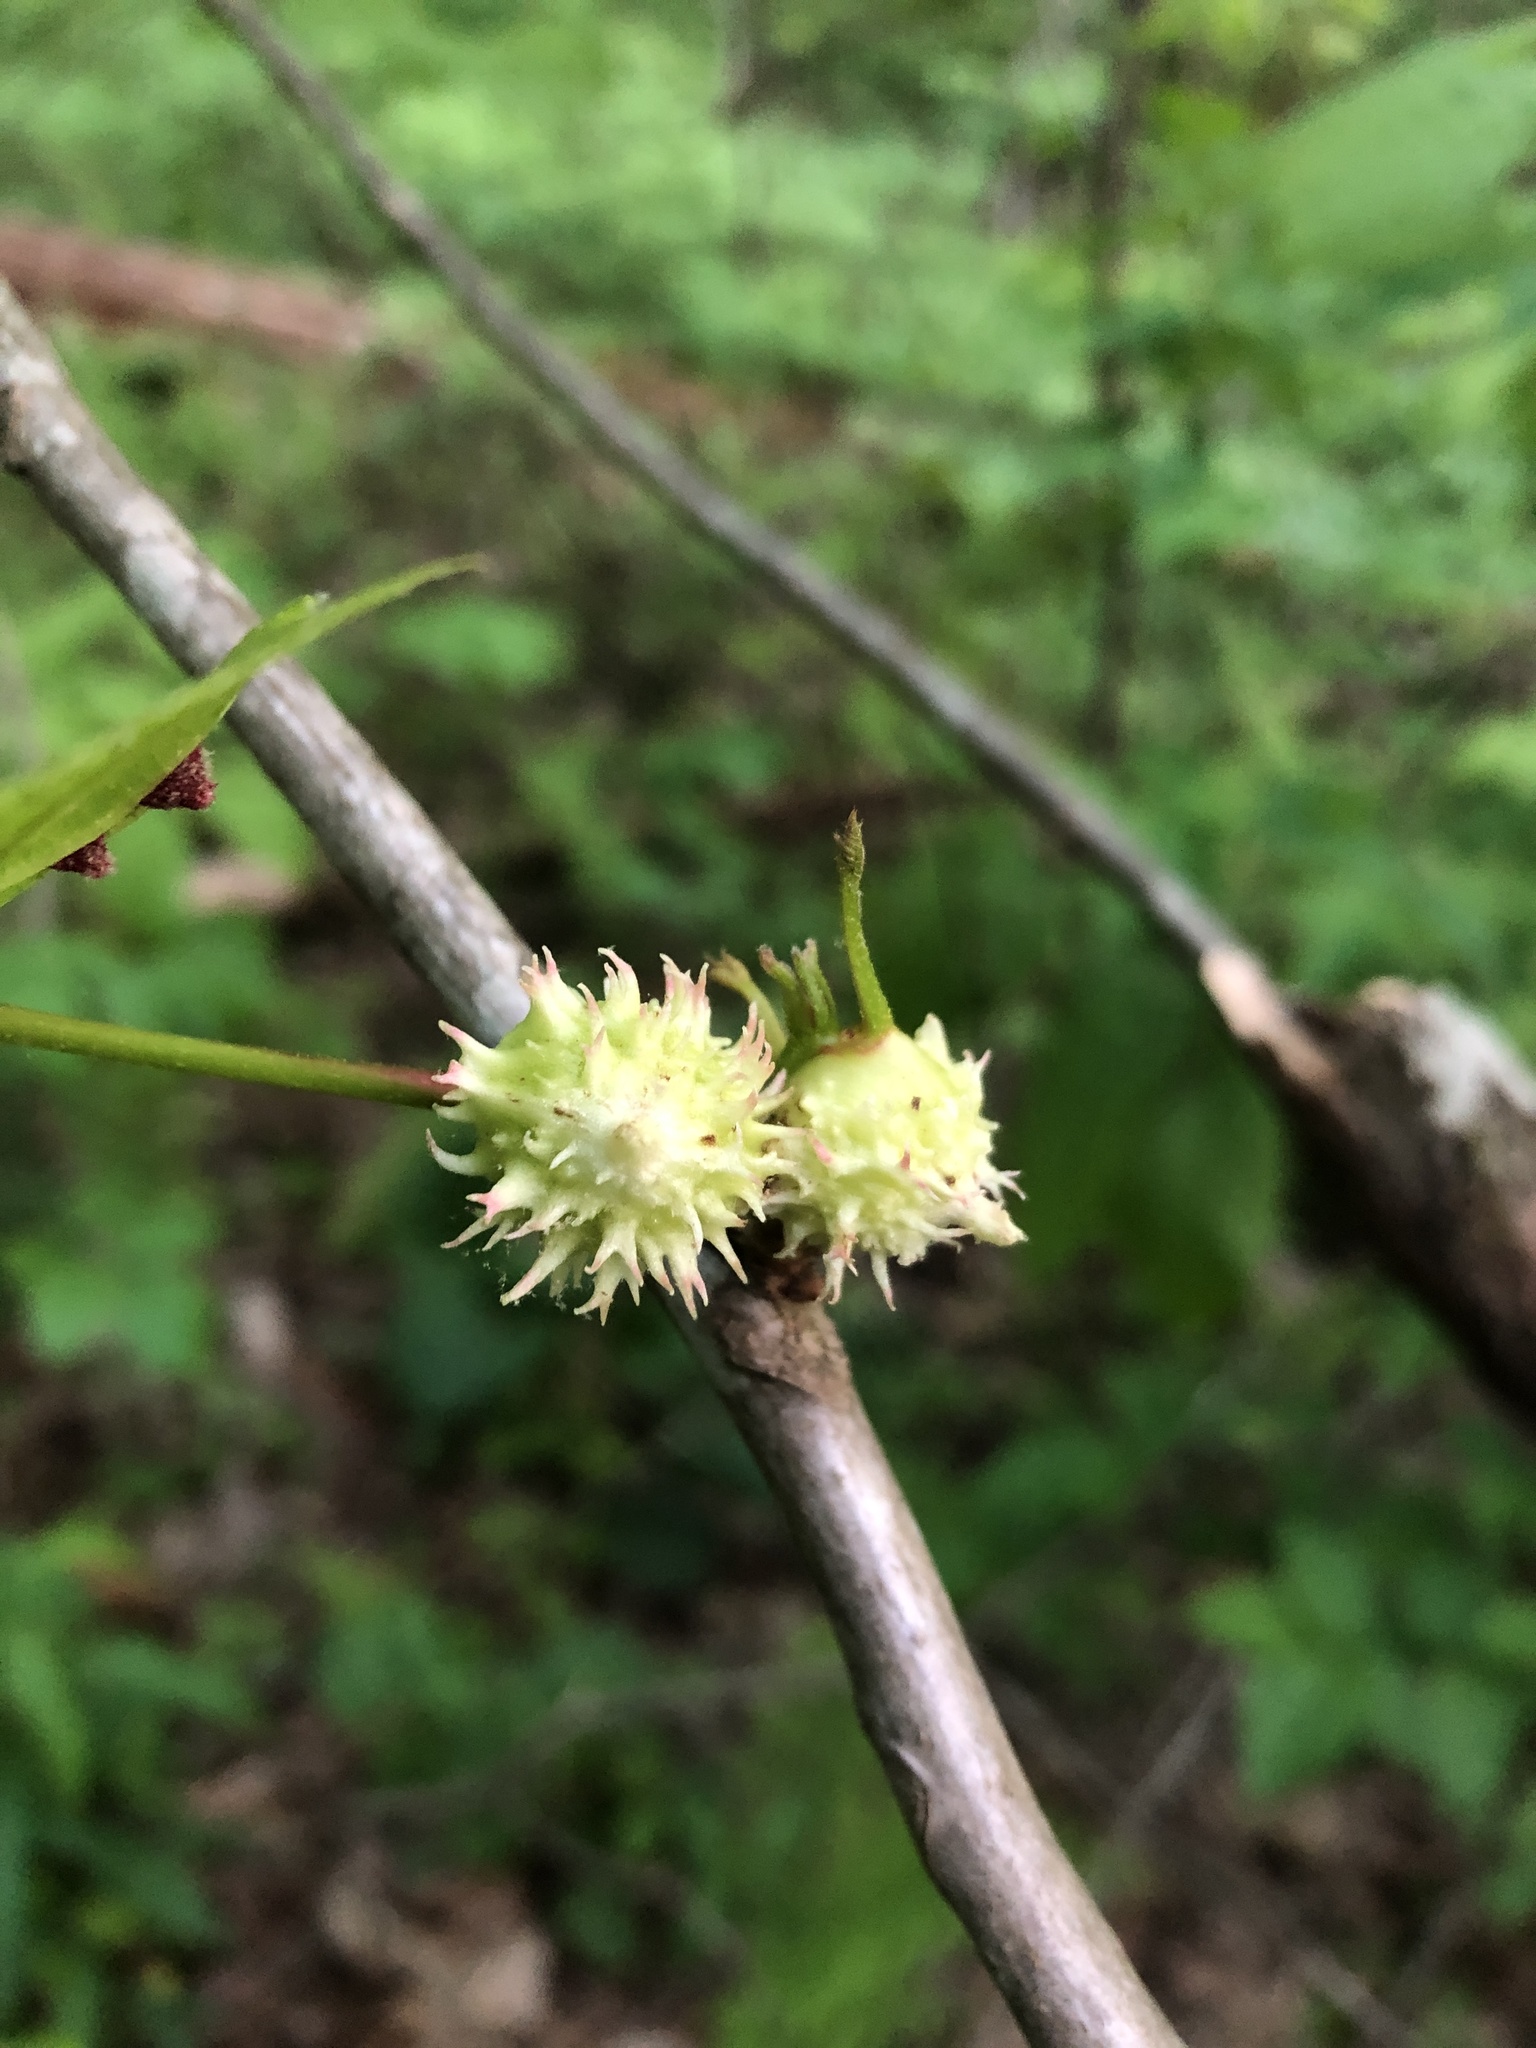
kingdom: Animalia
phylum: Arthropoda
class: Insecta
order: Hemiptera
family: Phylloxeridae
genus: Phylloxera
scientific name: Phylloxera spinosa
